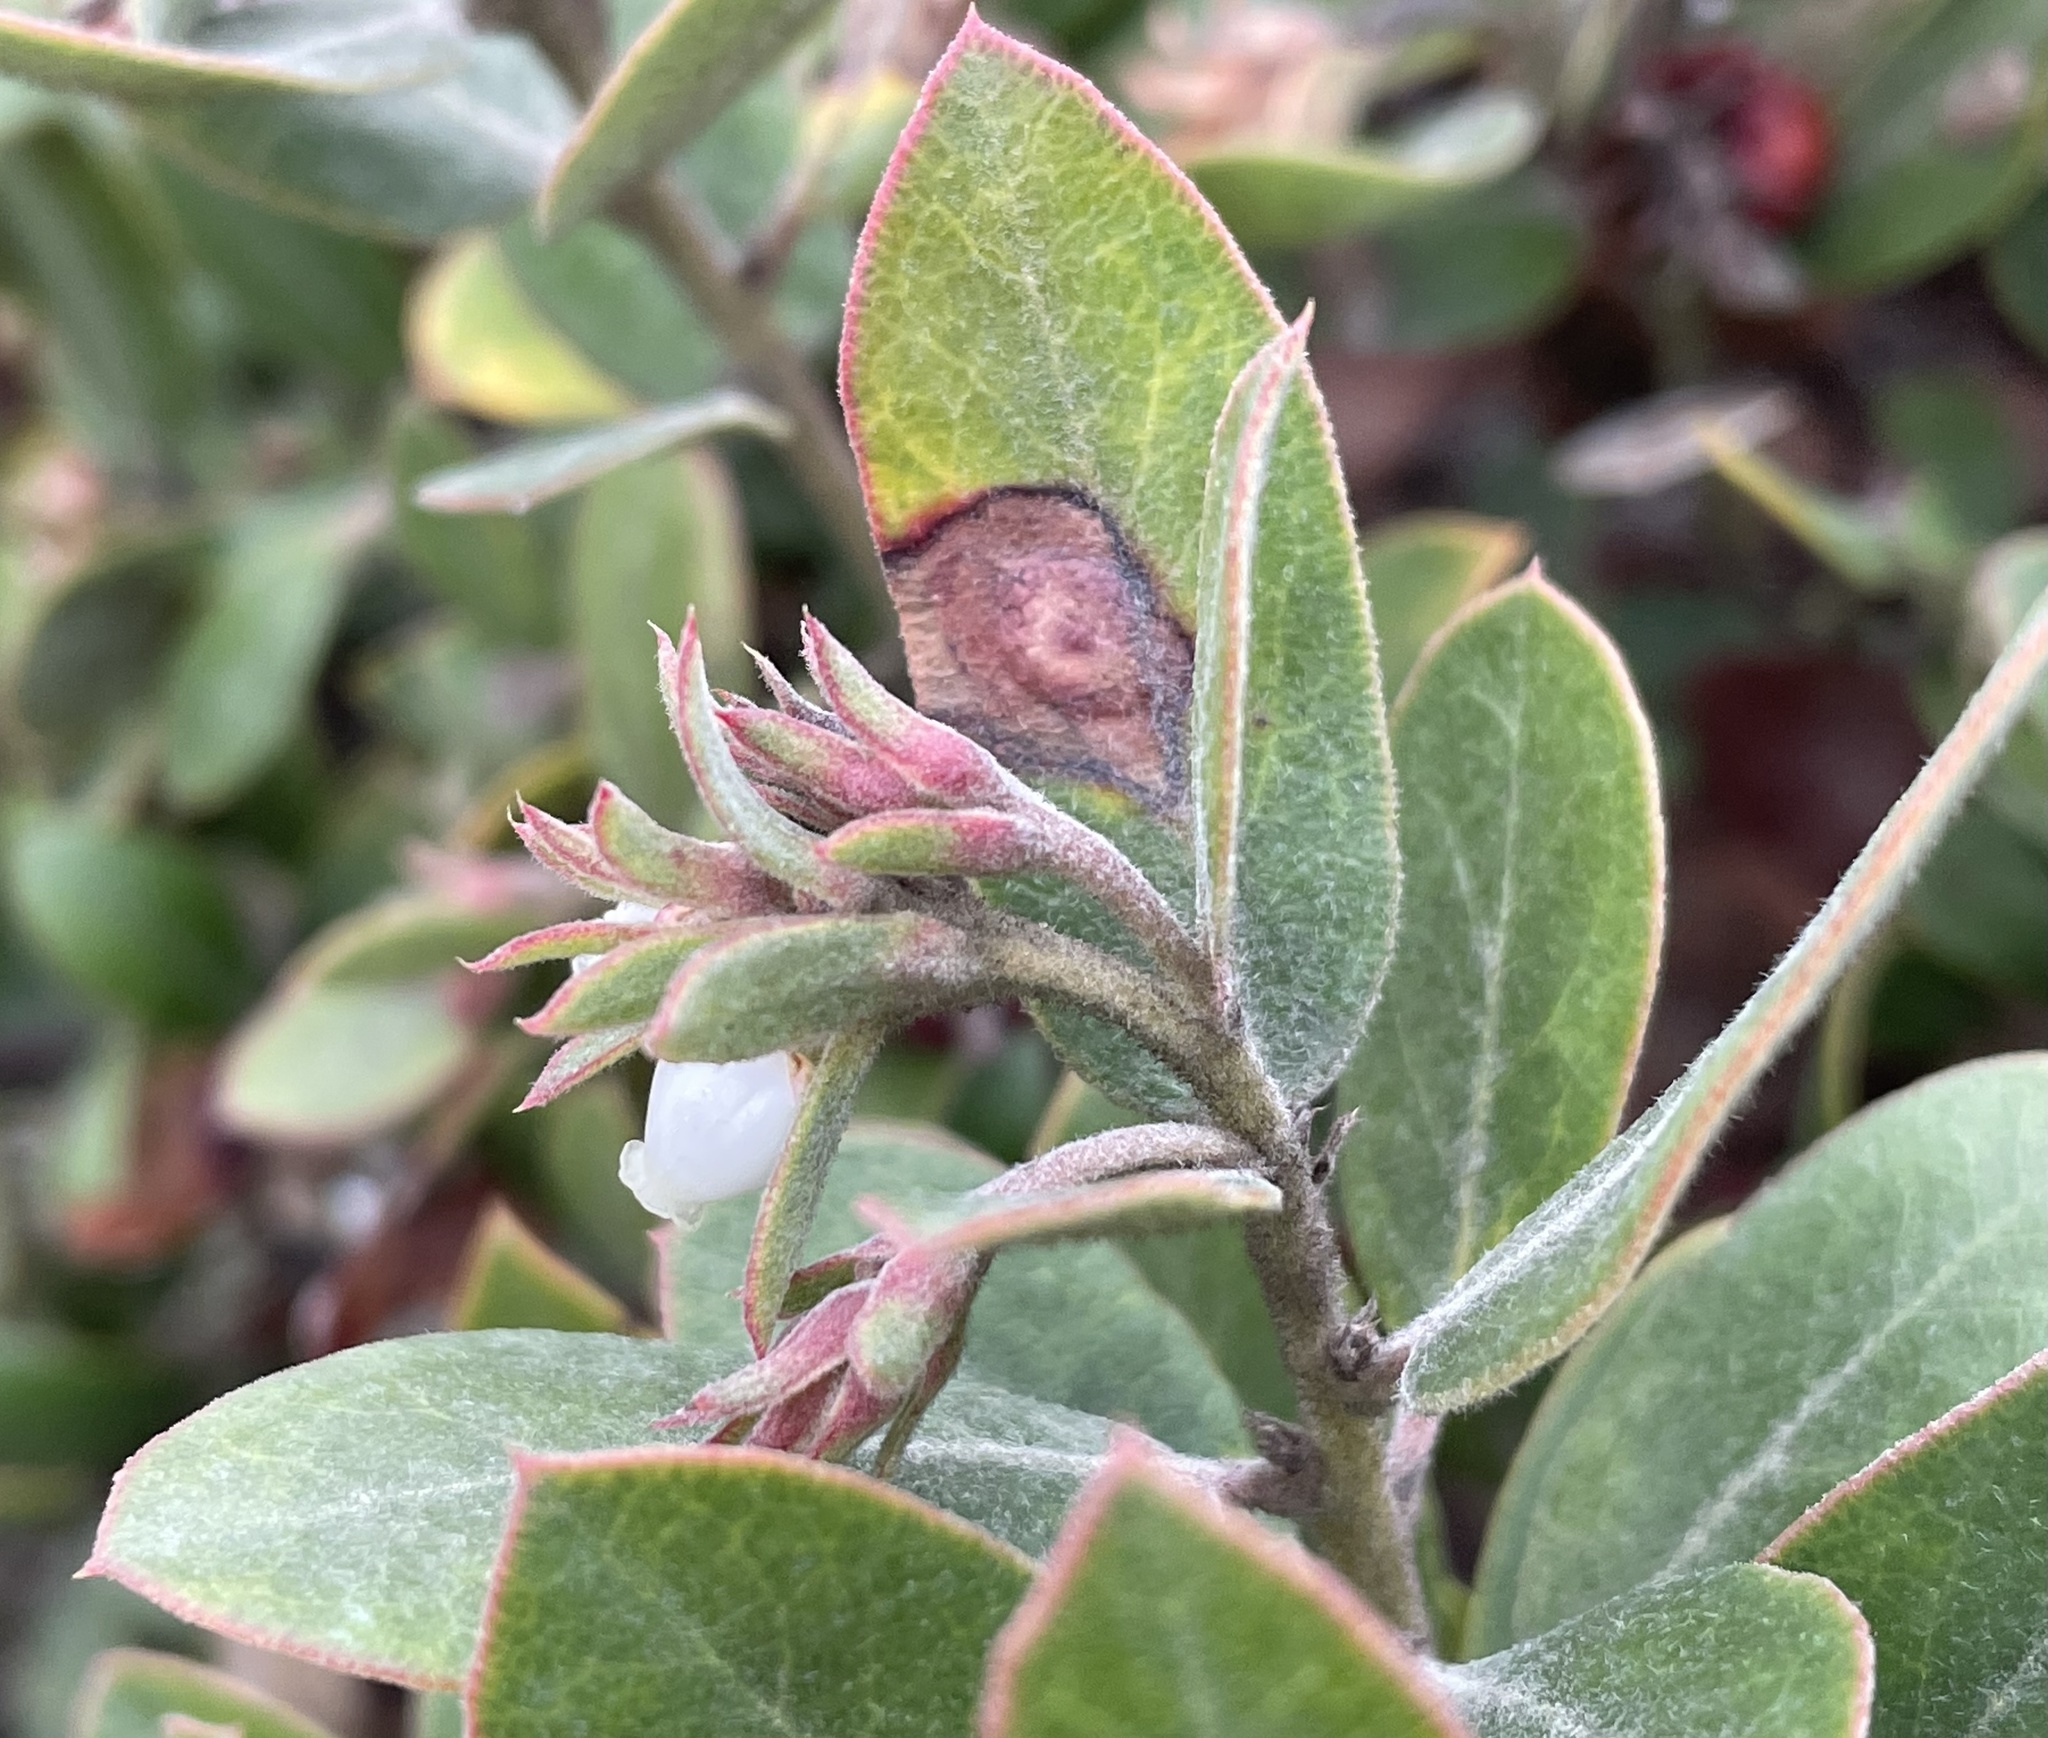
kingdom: Plantae
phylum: Tracheophyta
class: Magnoliopsida
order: Ericales
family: Ericaceae
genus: Arctostaphylos
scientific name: Arctostaphylos tomentosa
